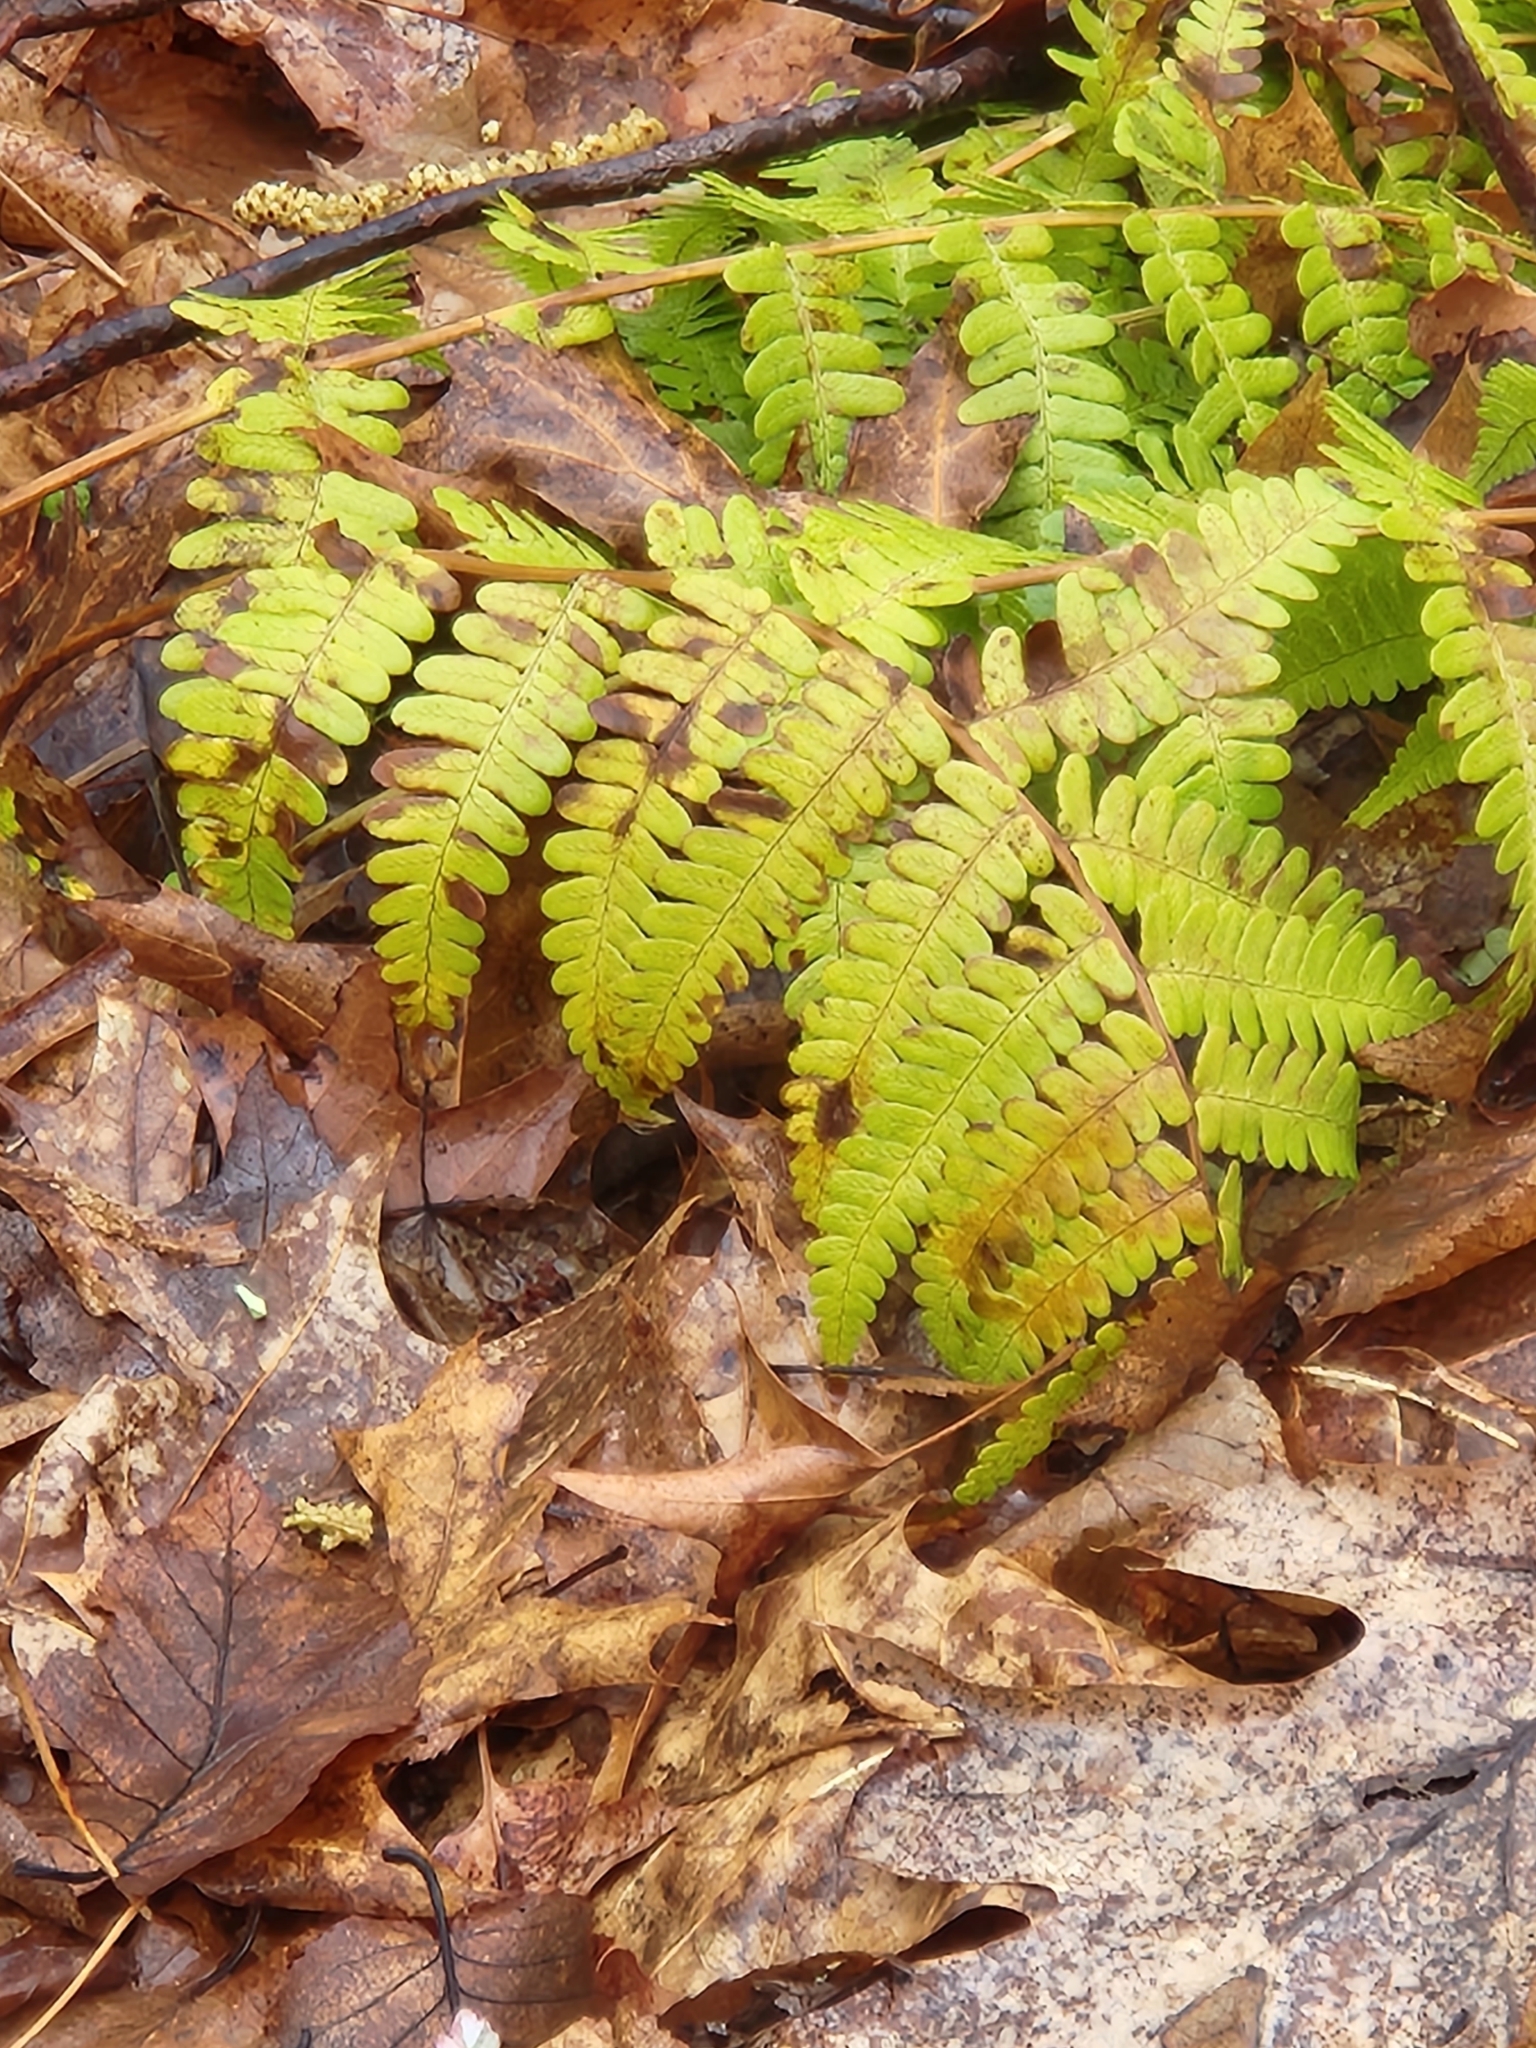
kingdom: Plantae
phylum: Tracheophyta
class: Polypodiopsida
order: Polypodiales
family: Dryopteridaceae
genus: Dryopteris
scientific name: Dryopteris marginalis
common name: Marginal wood fern
